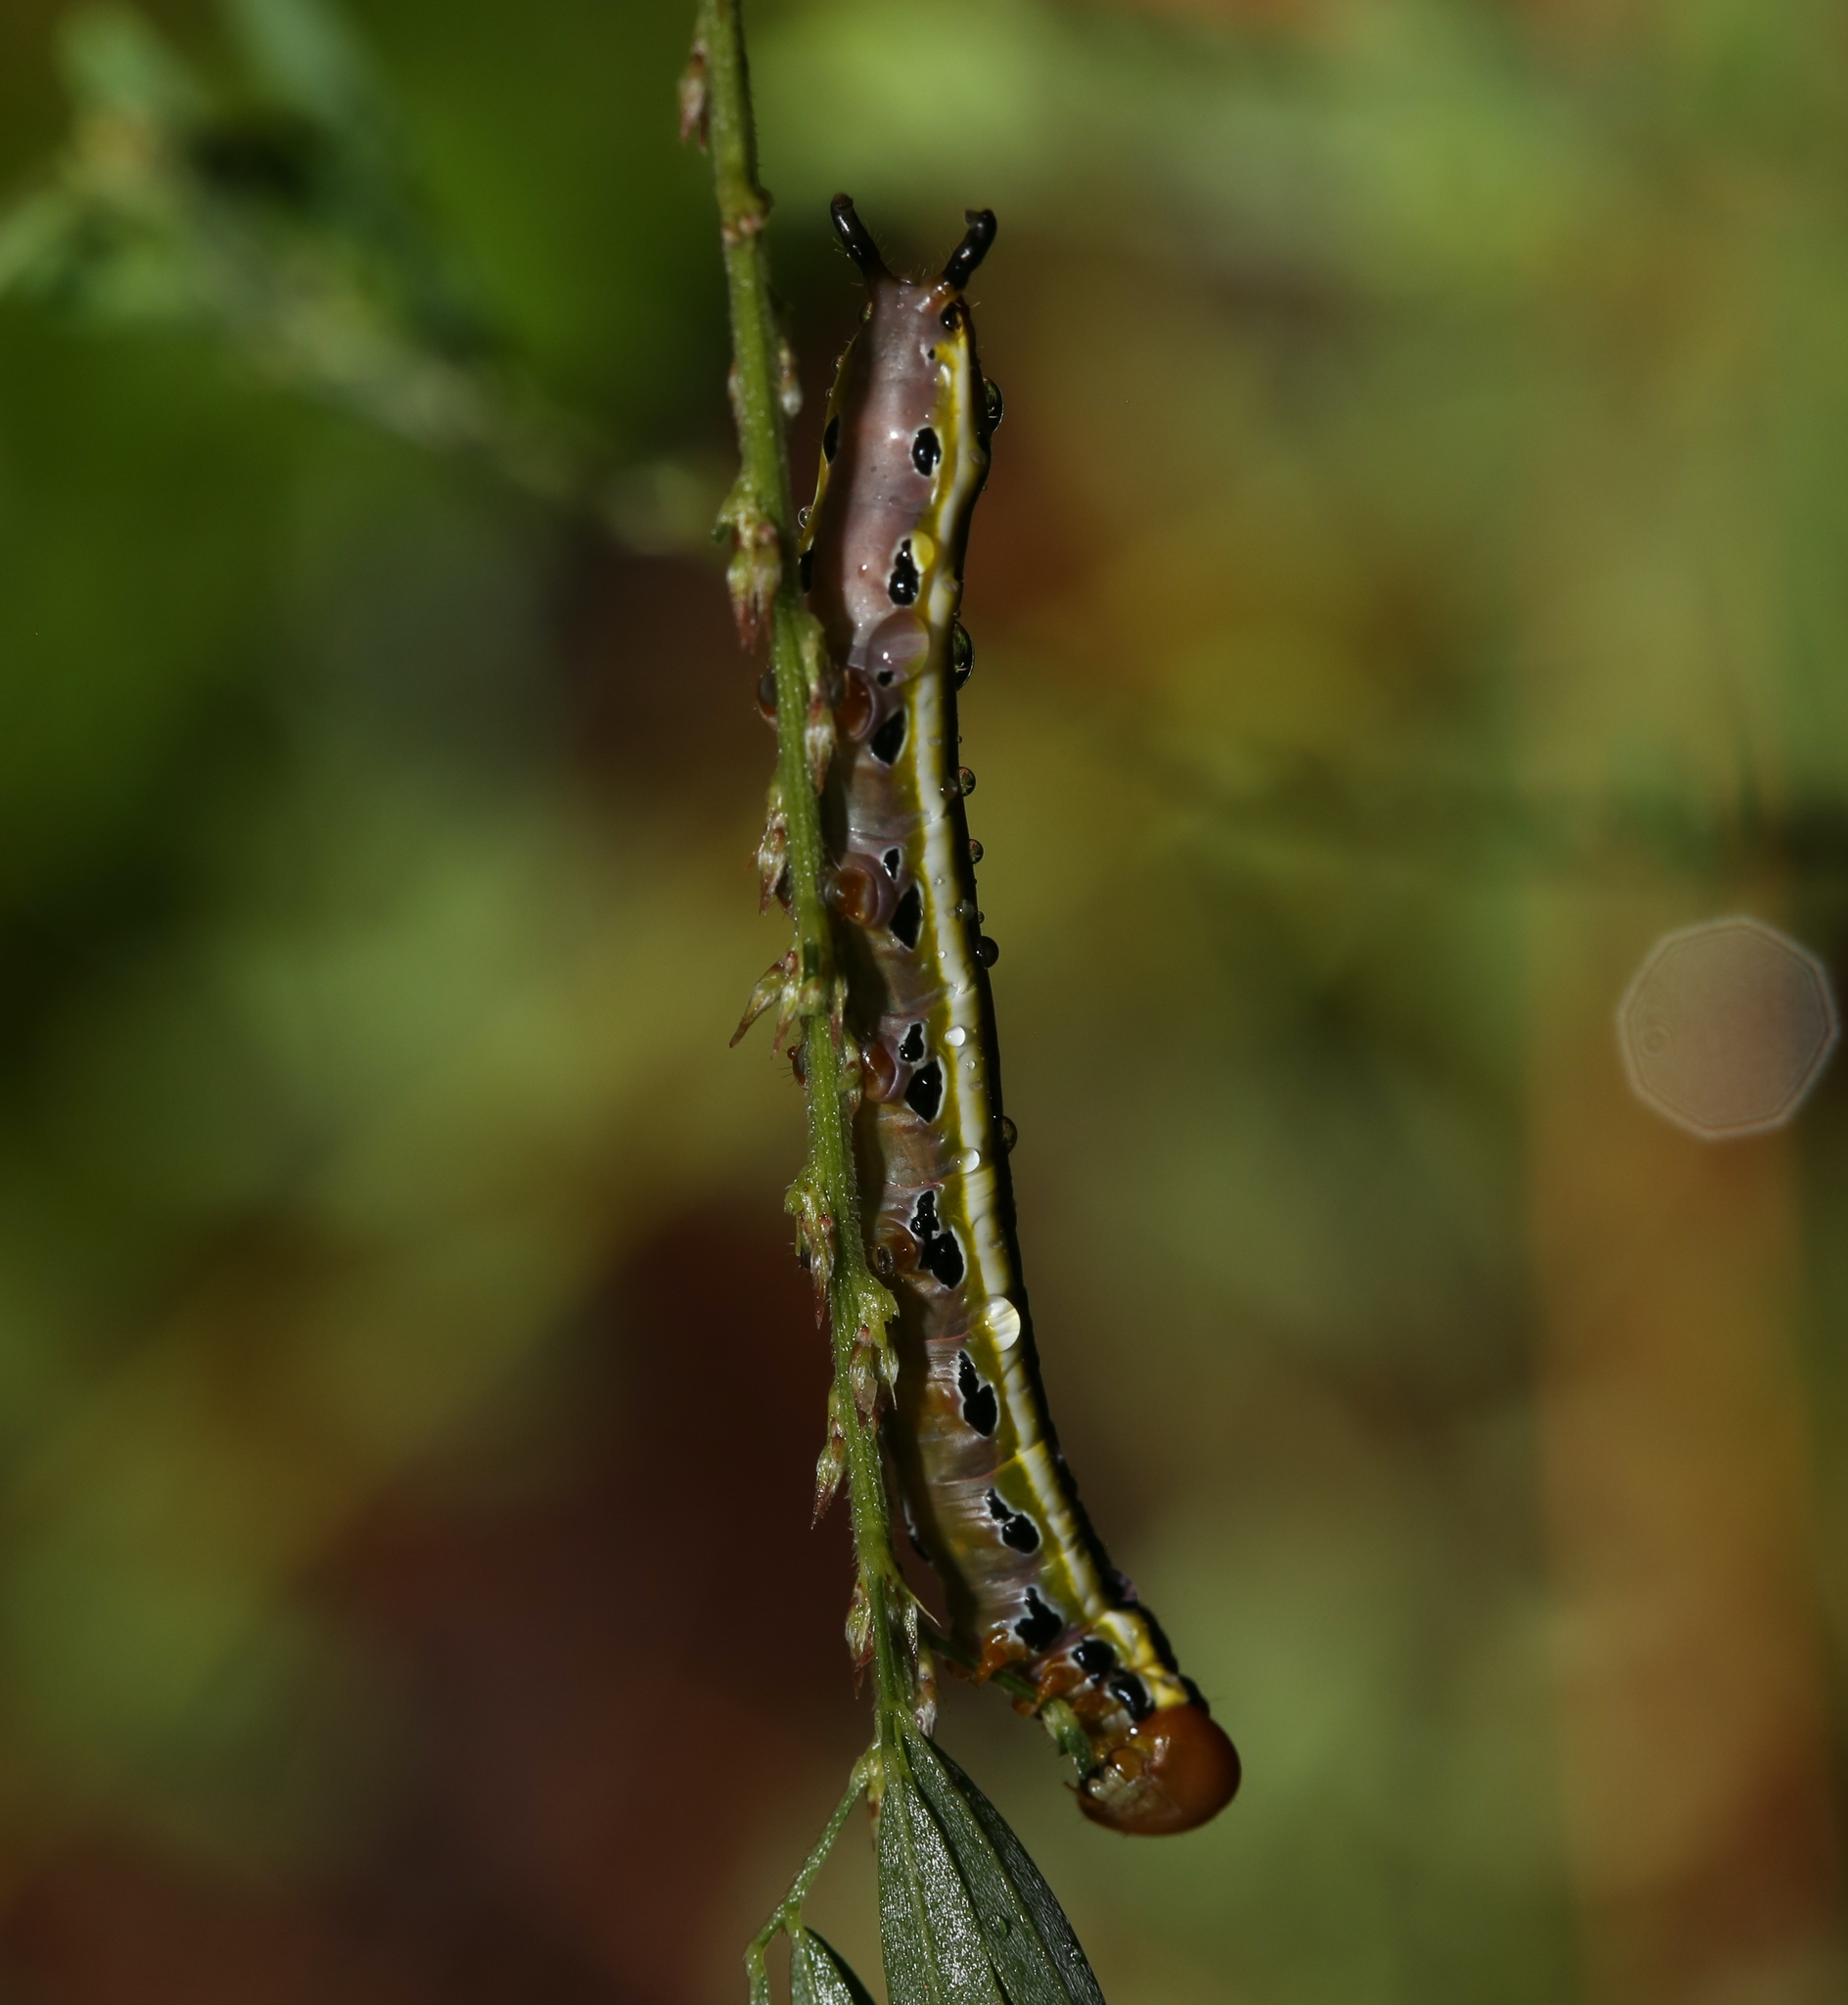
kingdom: Animalia
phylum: Arthropoda
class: Insecta
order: Lepidoptera
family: Notodontidae
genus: Dasylophia
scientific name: Dasylophia anguina
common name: Black-spotted prominent
